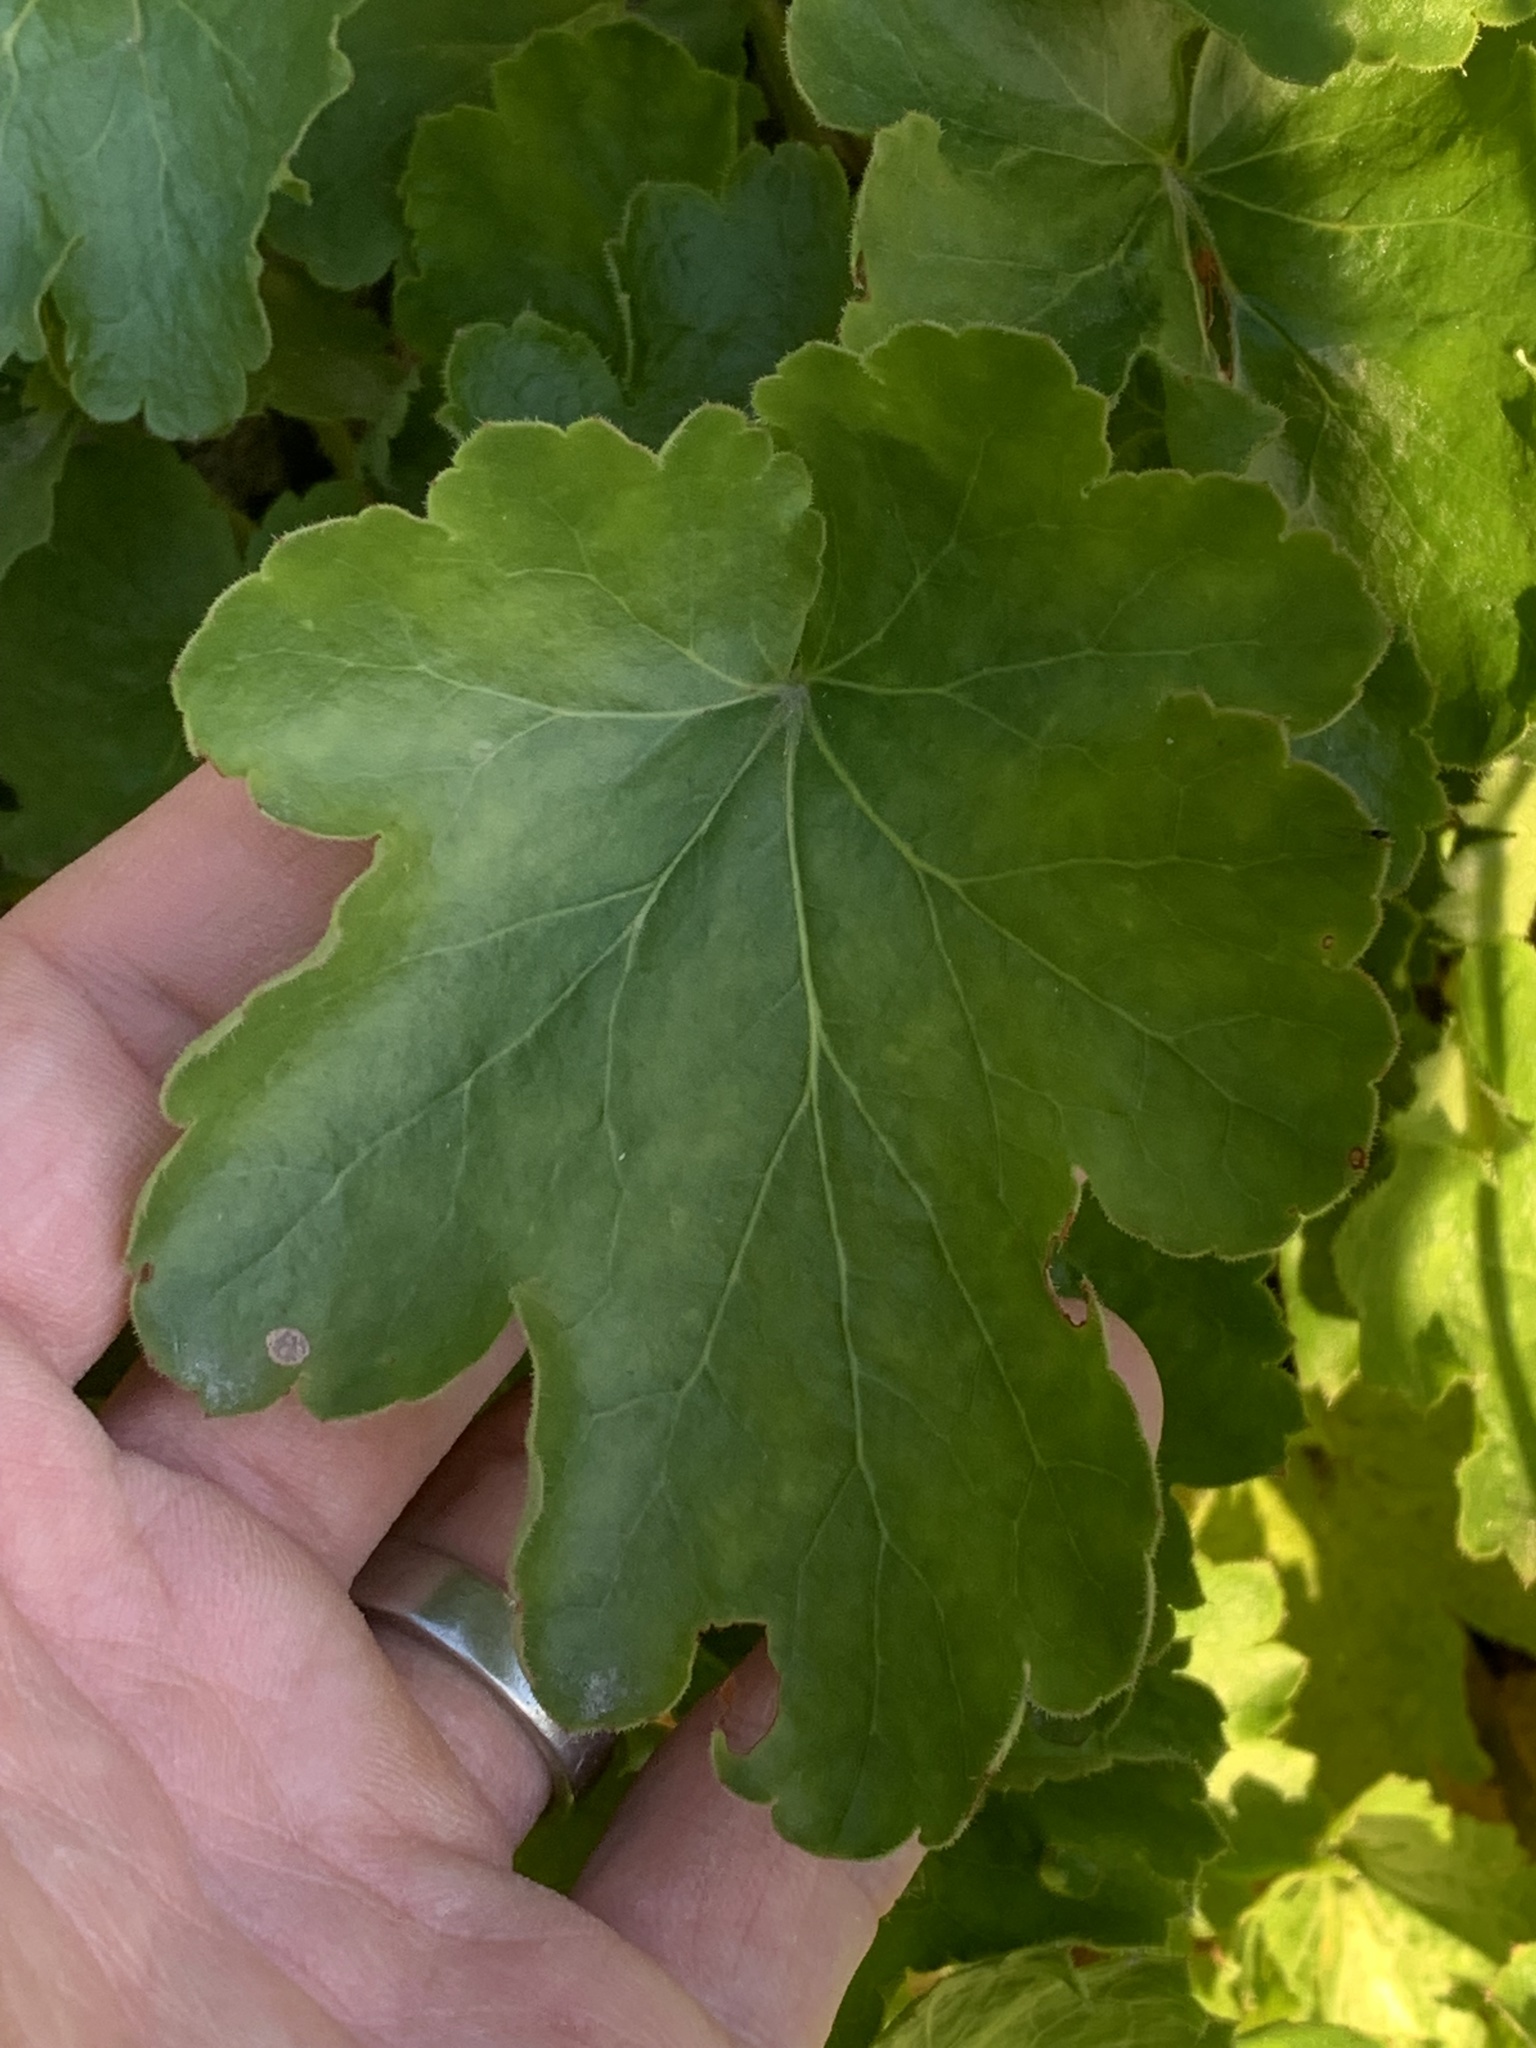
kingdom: Plantae
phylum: Tracheophyta
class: Magnoliopsida
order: Saxifragales
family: Saxifragaceae
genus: Heuchera
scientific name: Heuchera cylindrica
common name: Mat alumroot
